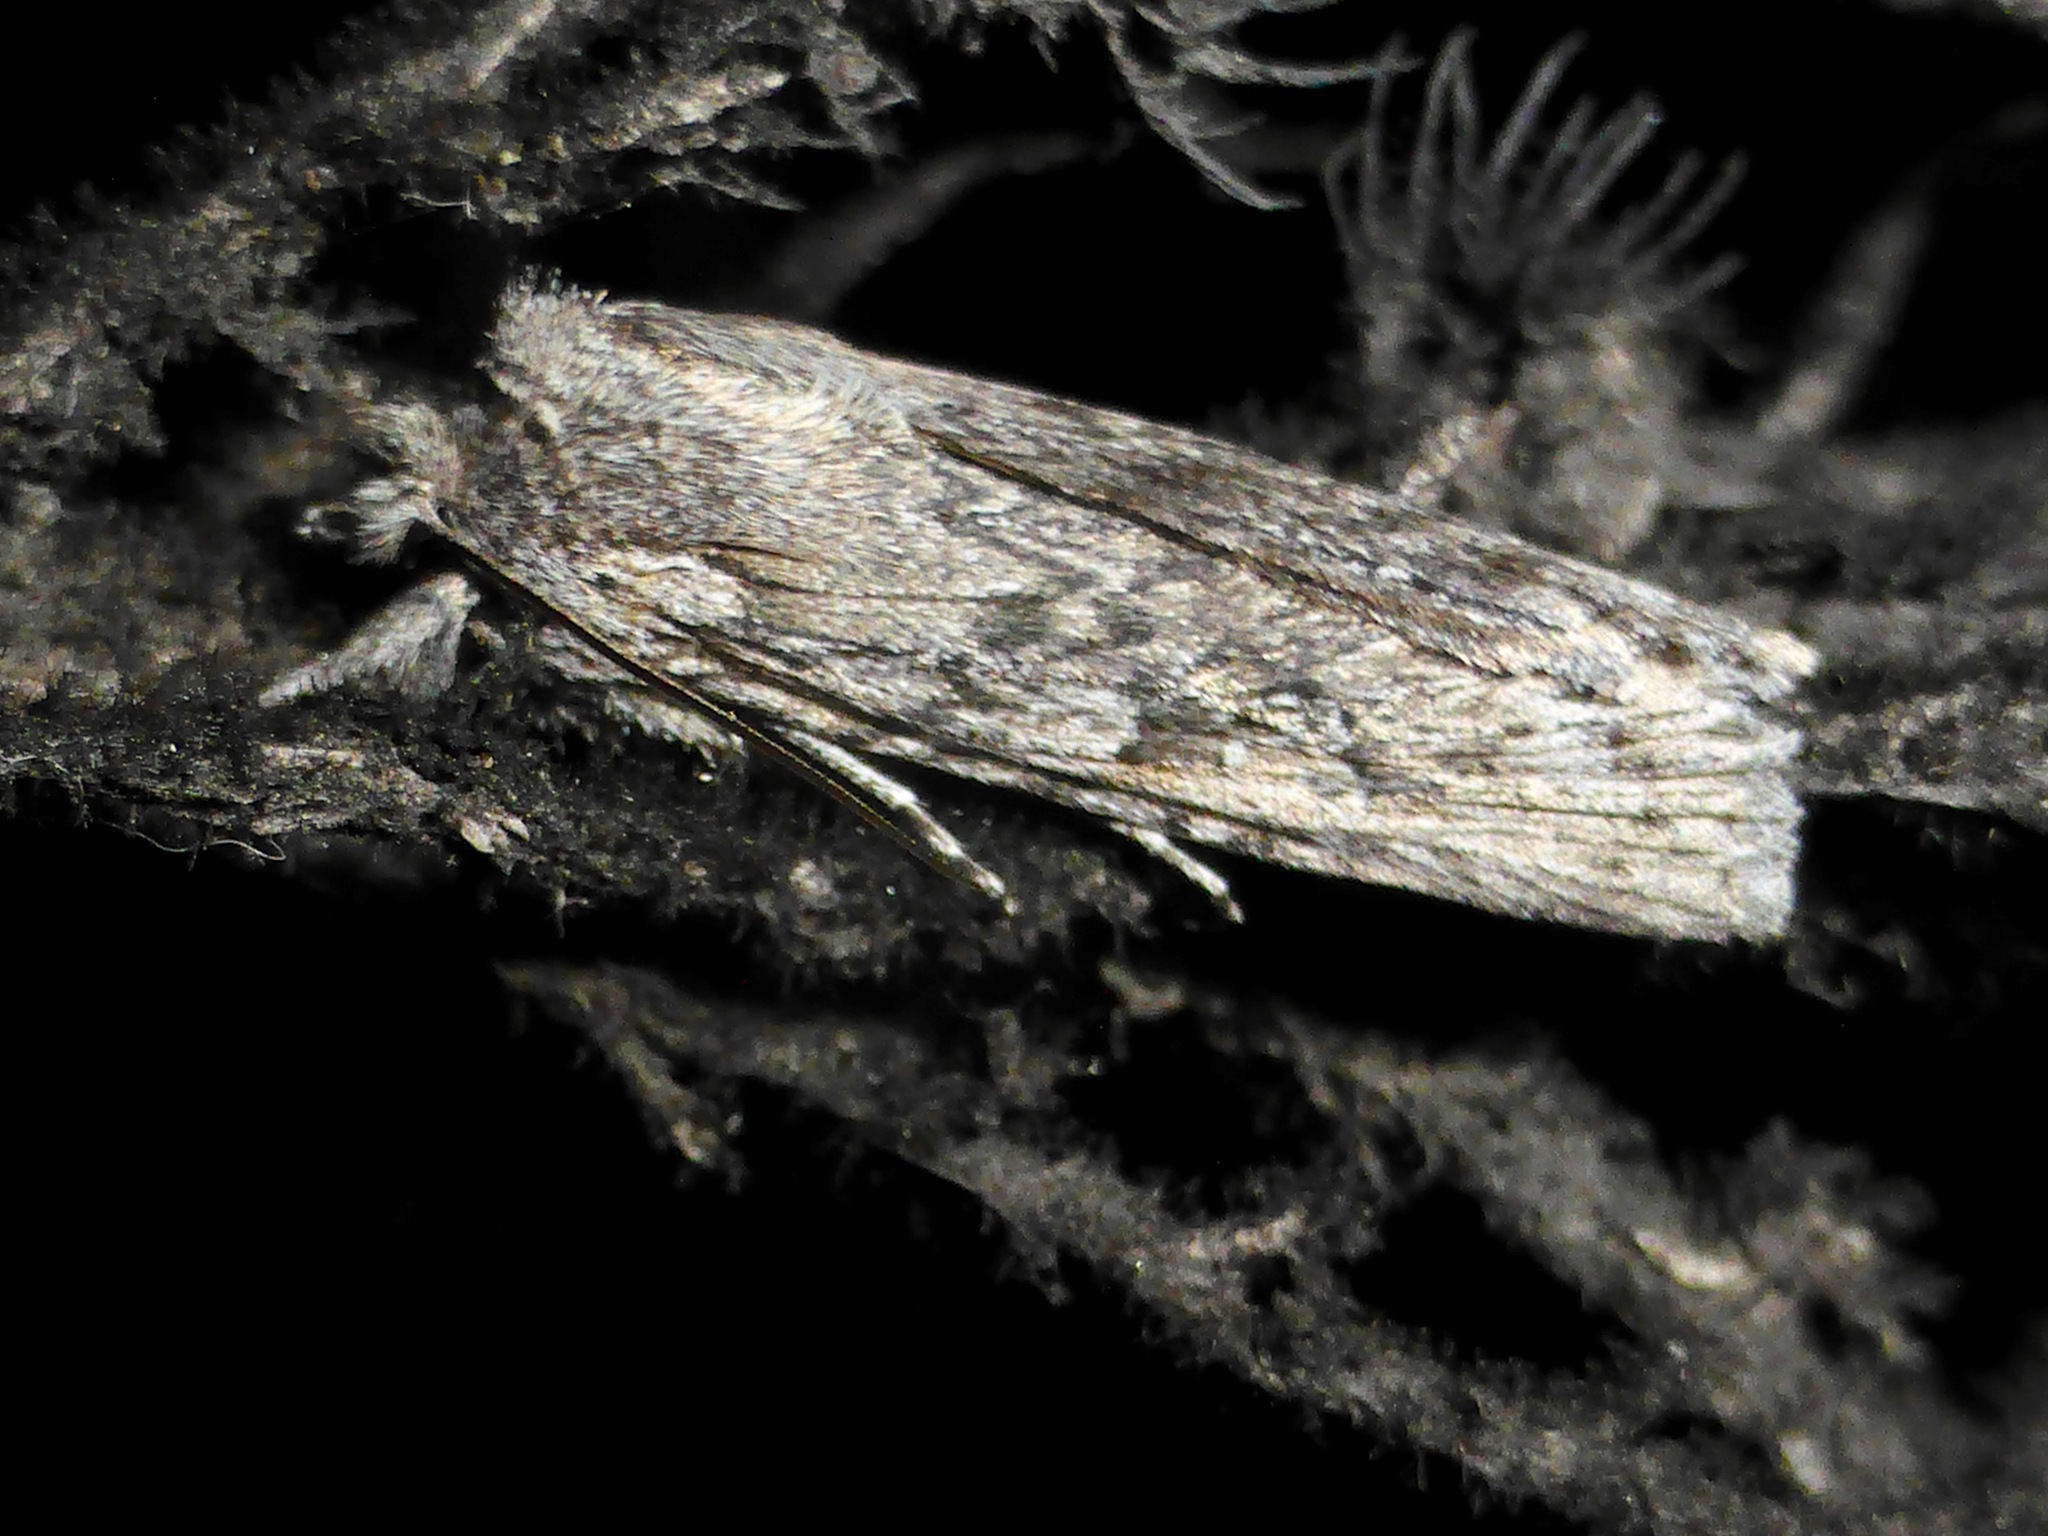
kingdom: Animalia
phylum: Arthropoda
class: Insecta
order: Lepidoptera
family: Noctuidae
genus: Physetica
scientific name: Physetica phricias
